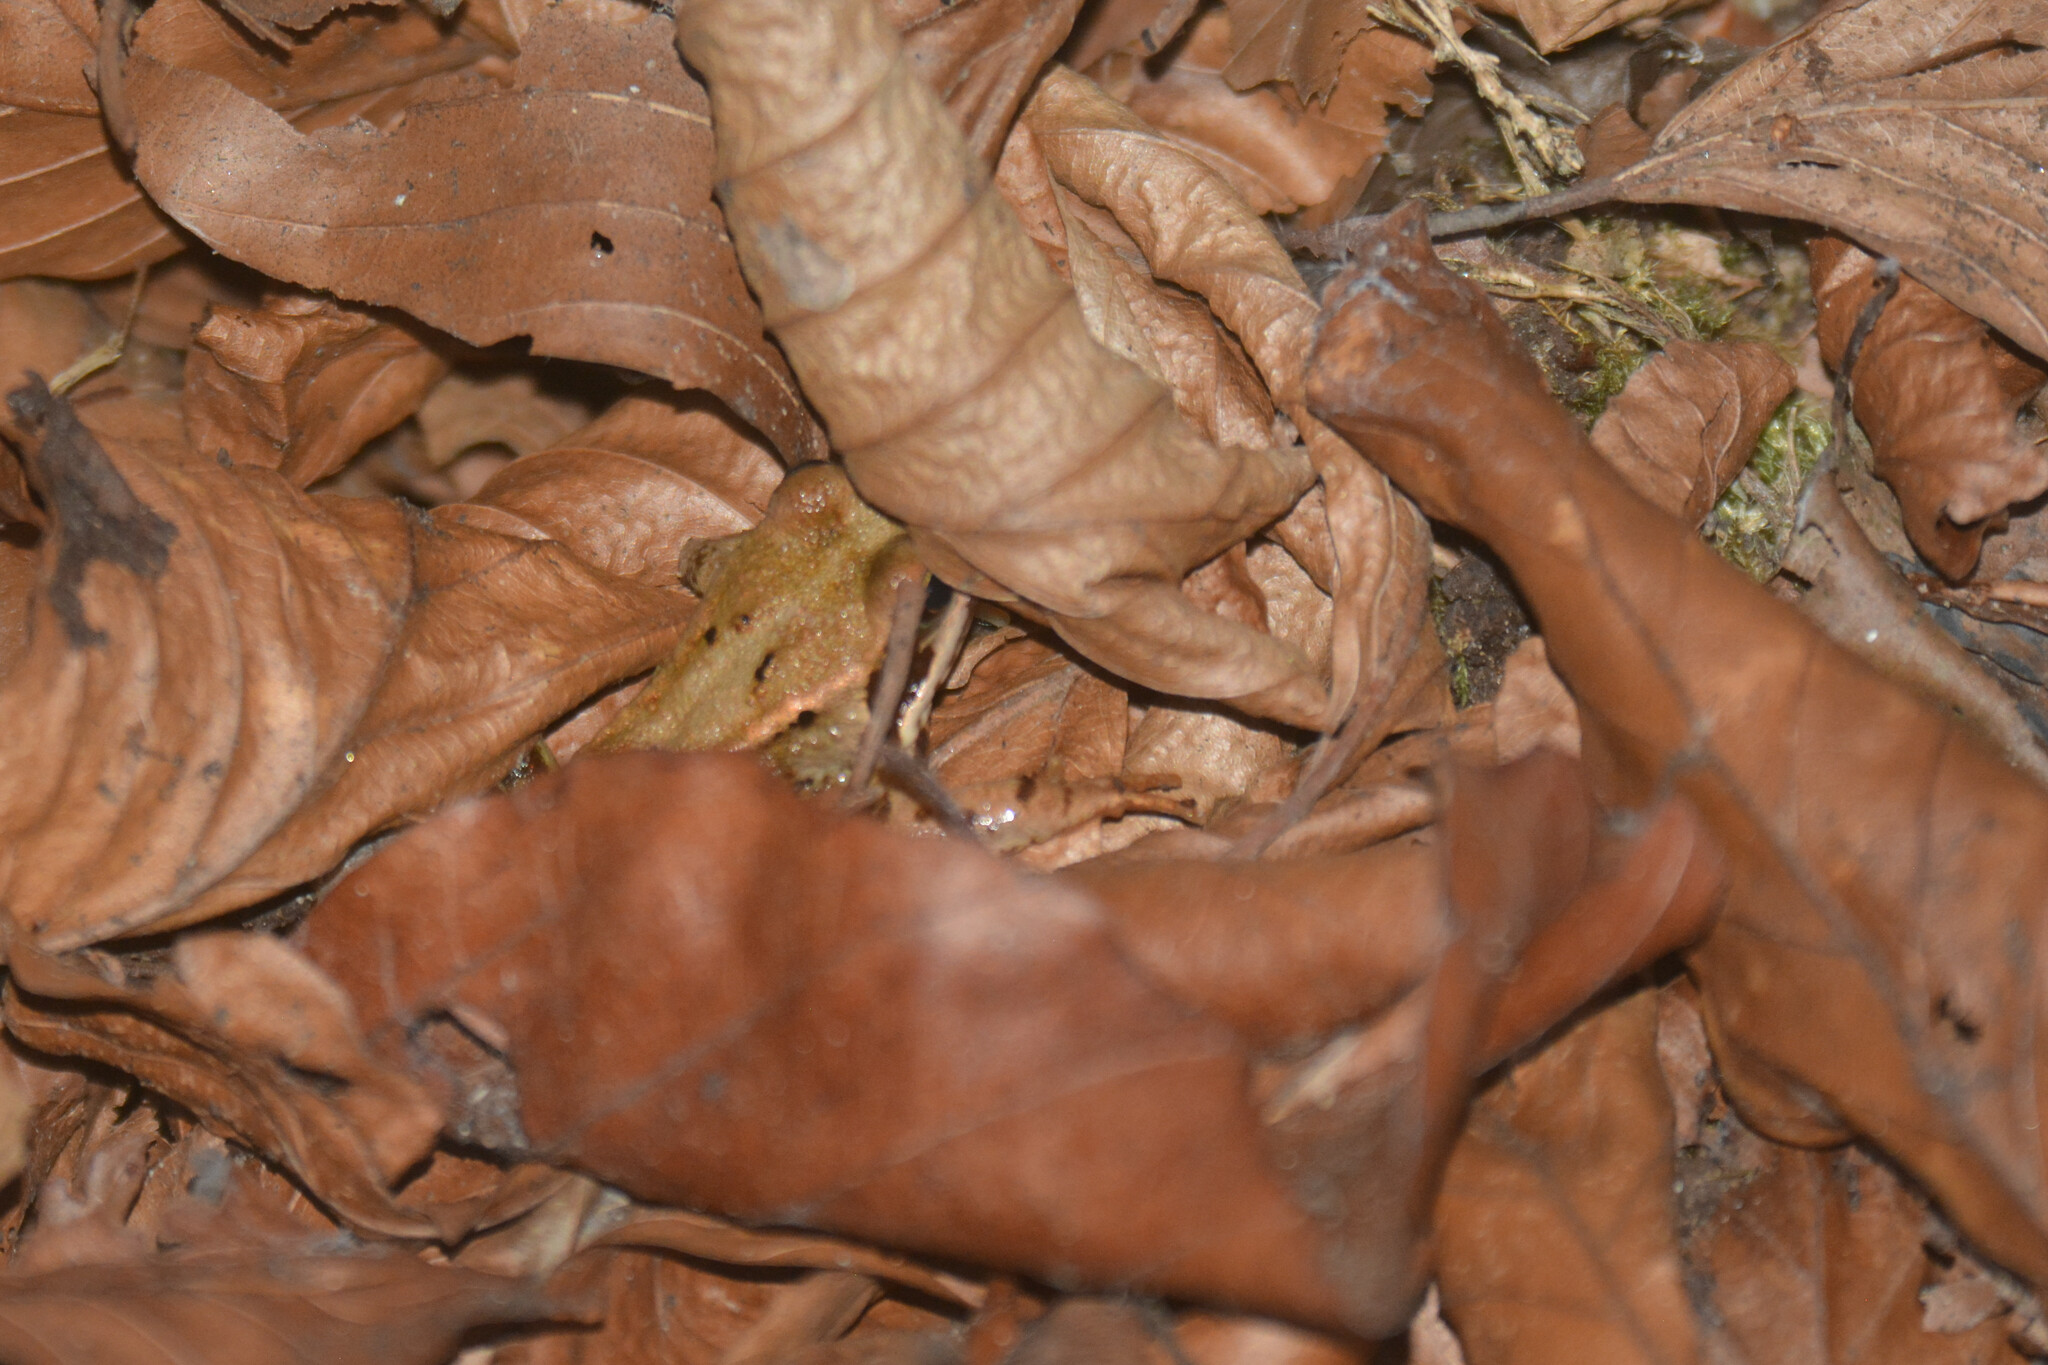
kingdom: Animalia
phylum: Chordata
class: Amphibia
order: Anura
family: Ranidae
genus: Rana
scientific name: Rana temporaria
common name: Common frog
